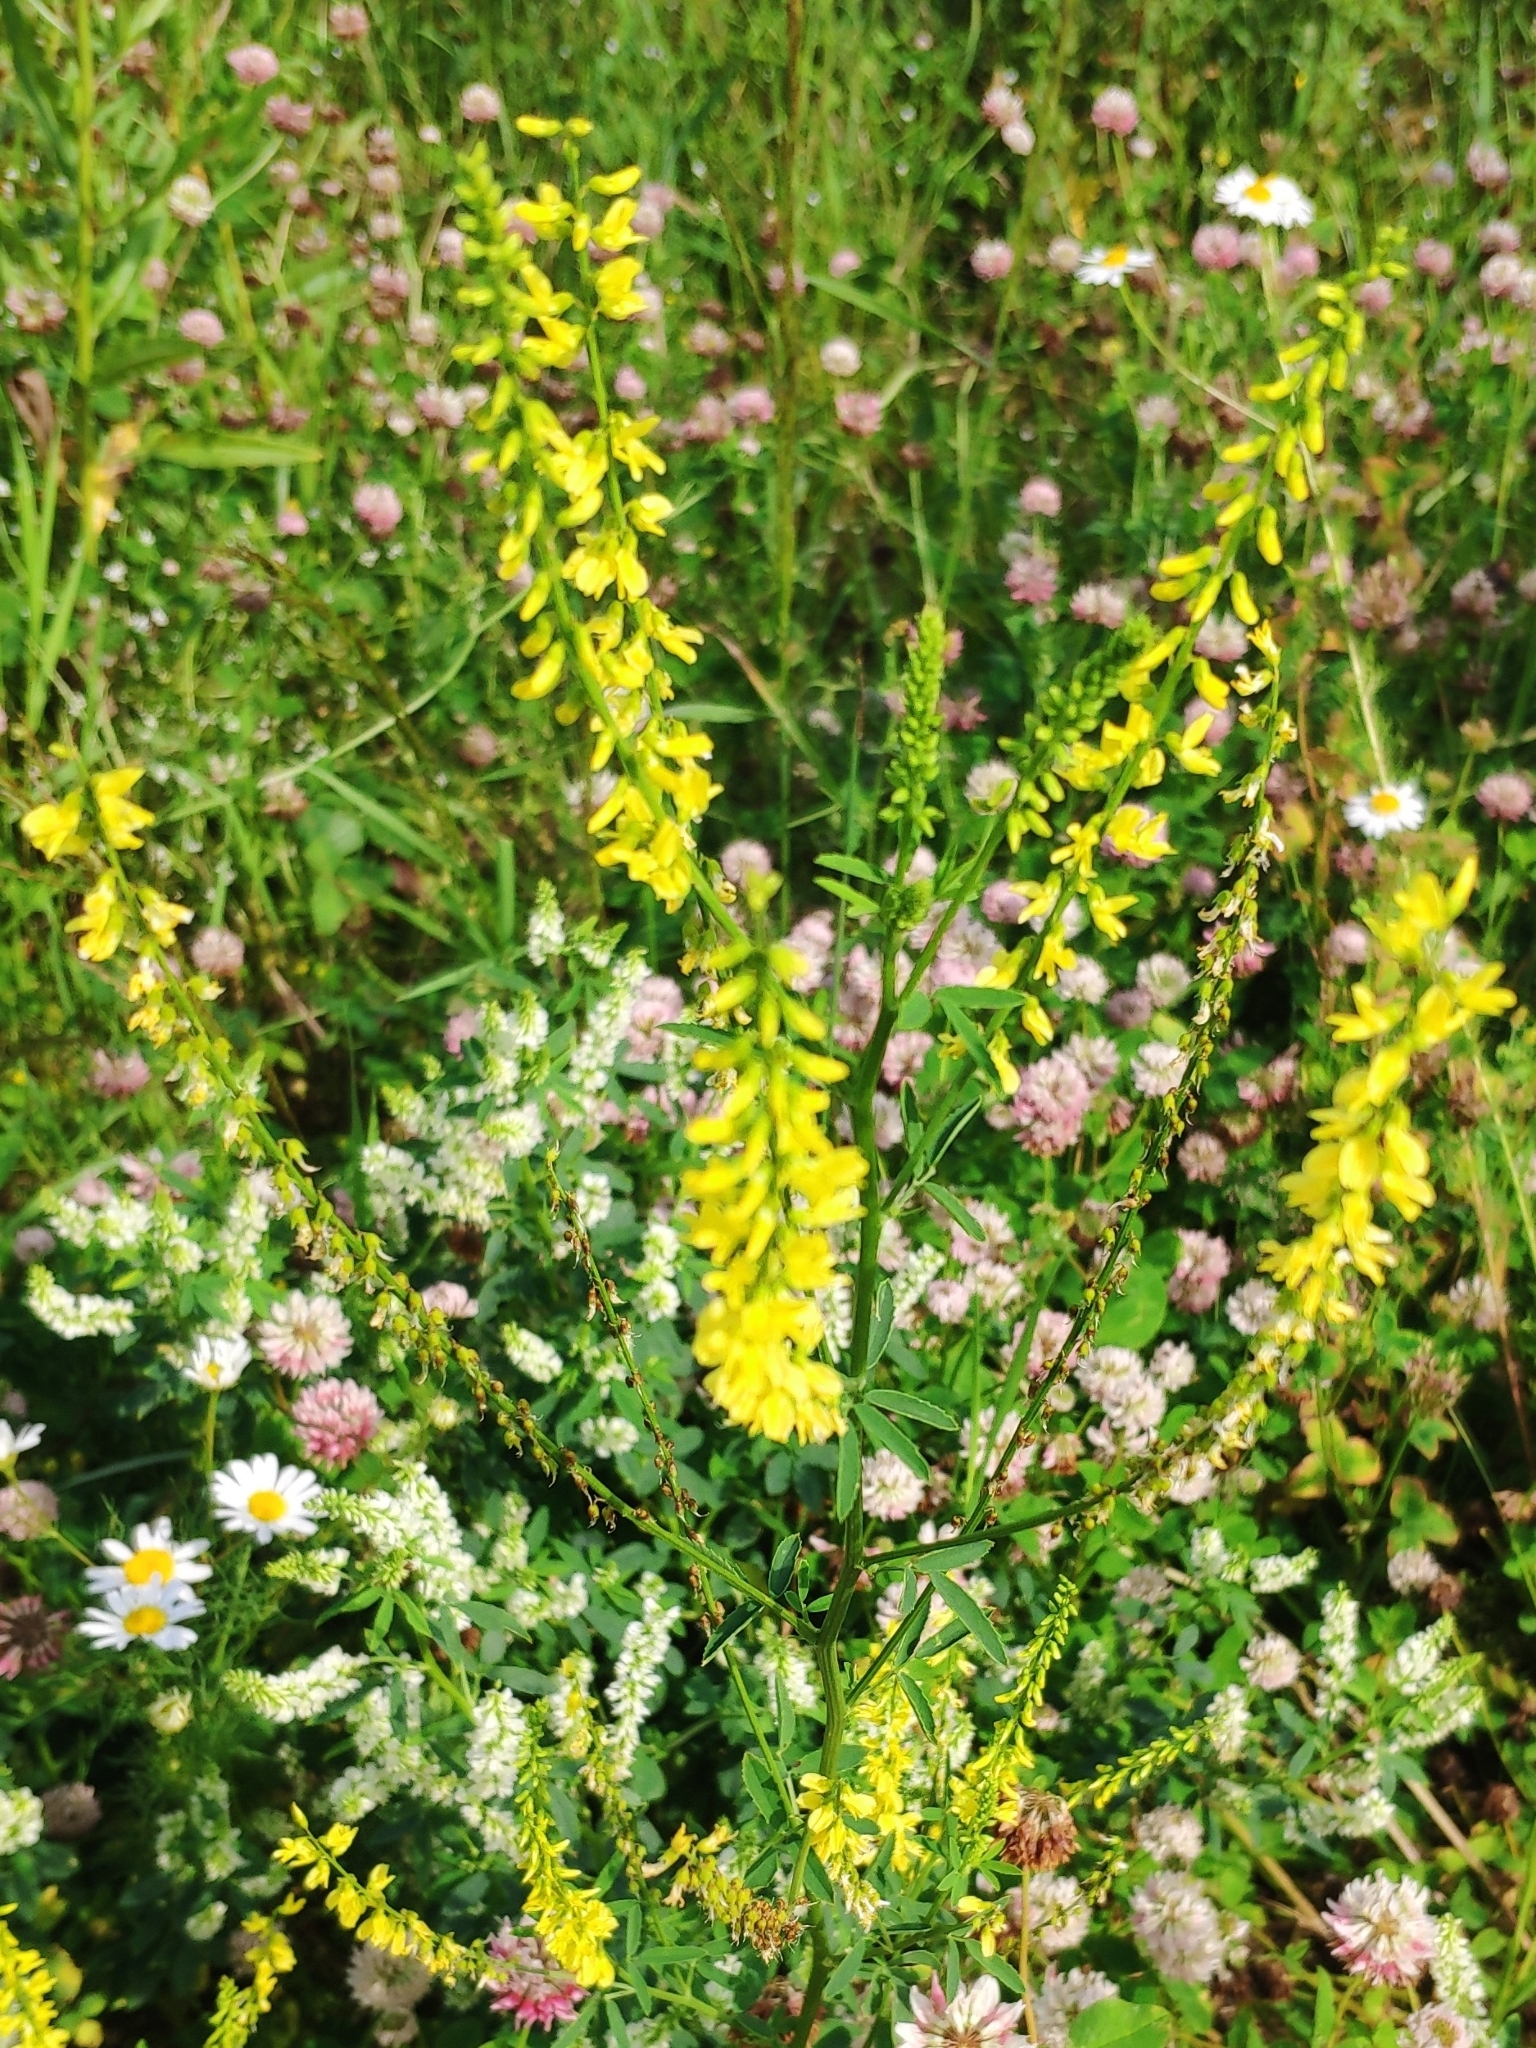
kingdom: Plantae
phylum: Tracheophyta
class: Magnoliopsida
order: Fabales
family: Fabaceae
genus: Melilotus
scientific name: Melilotus officinalis
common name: Sweetclover
